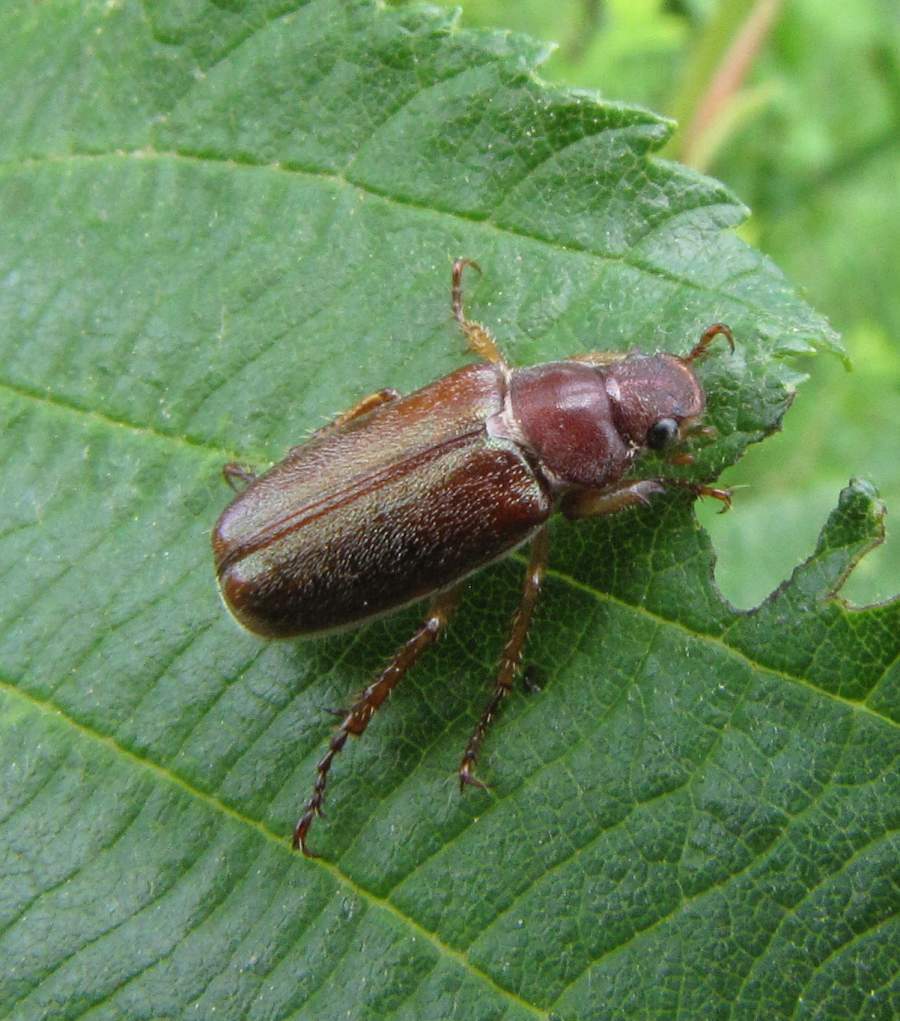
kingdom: Animalia
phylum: Arthropoda
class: Insecta
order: Coleoptera
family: Scarabaeidae
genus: Dichelonyx
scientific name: Dichelonyx linearis
